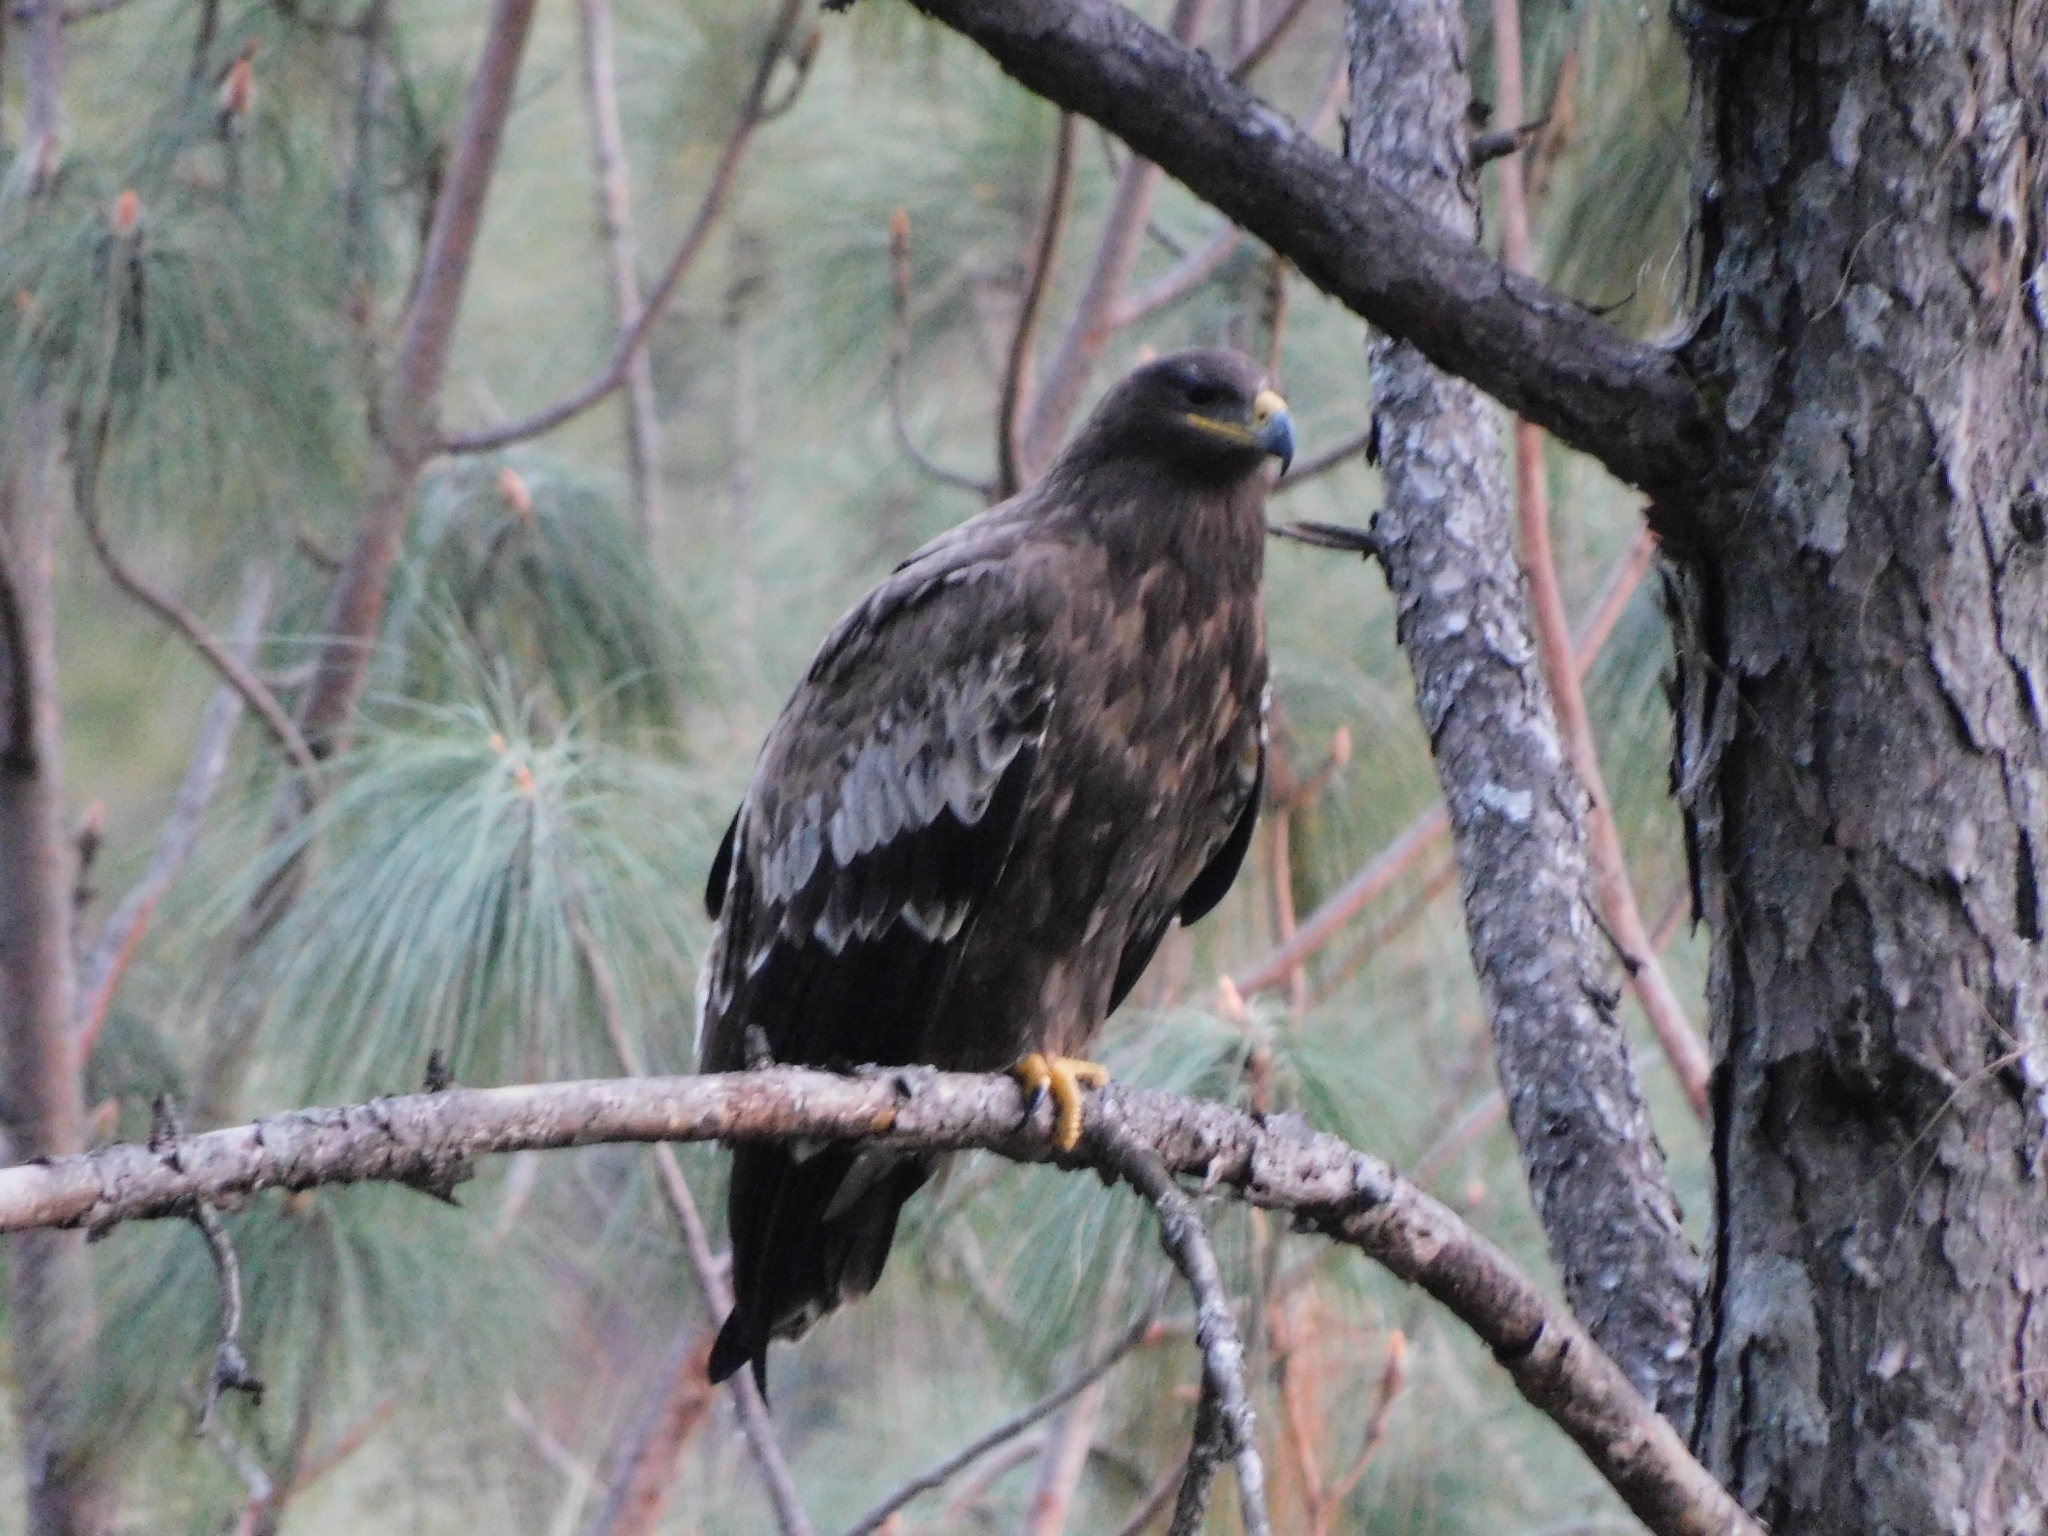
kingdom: Animalia
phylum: Chordata
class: Aves
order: Accipitriformes
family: Accipitridae
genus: Aquila
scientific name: Aquila nipalensis
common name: Steppe eagle
